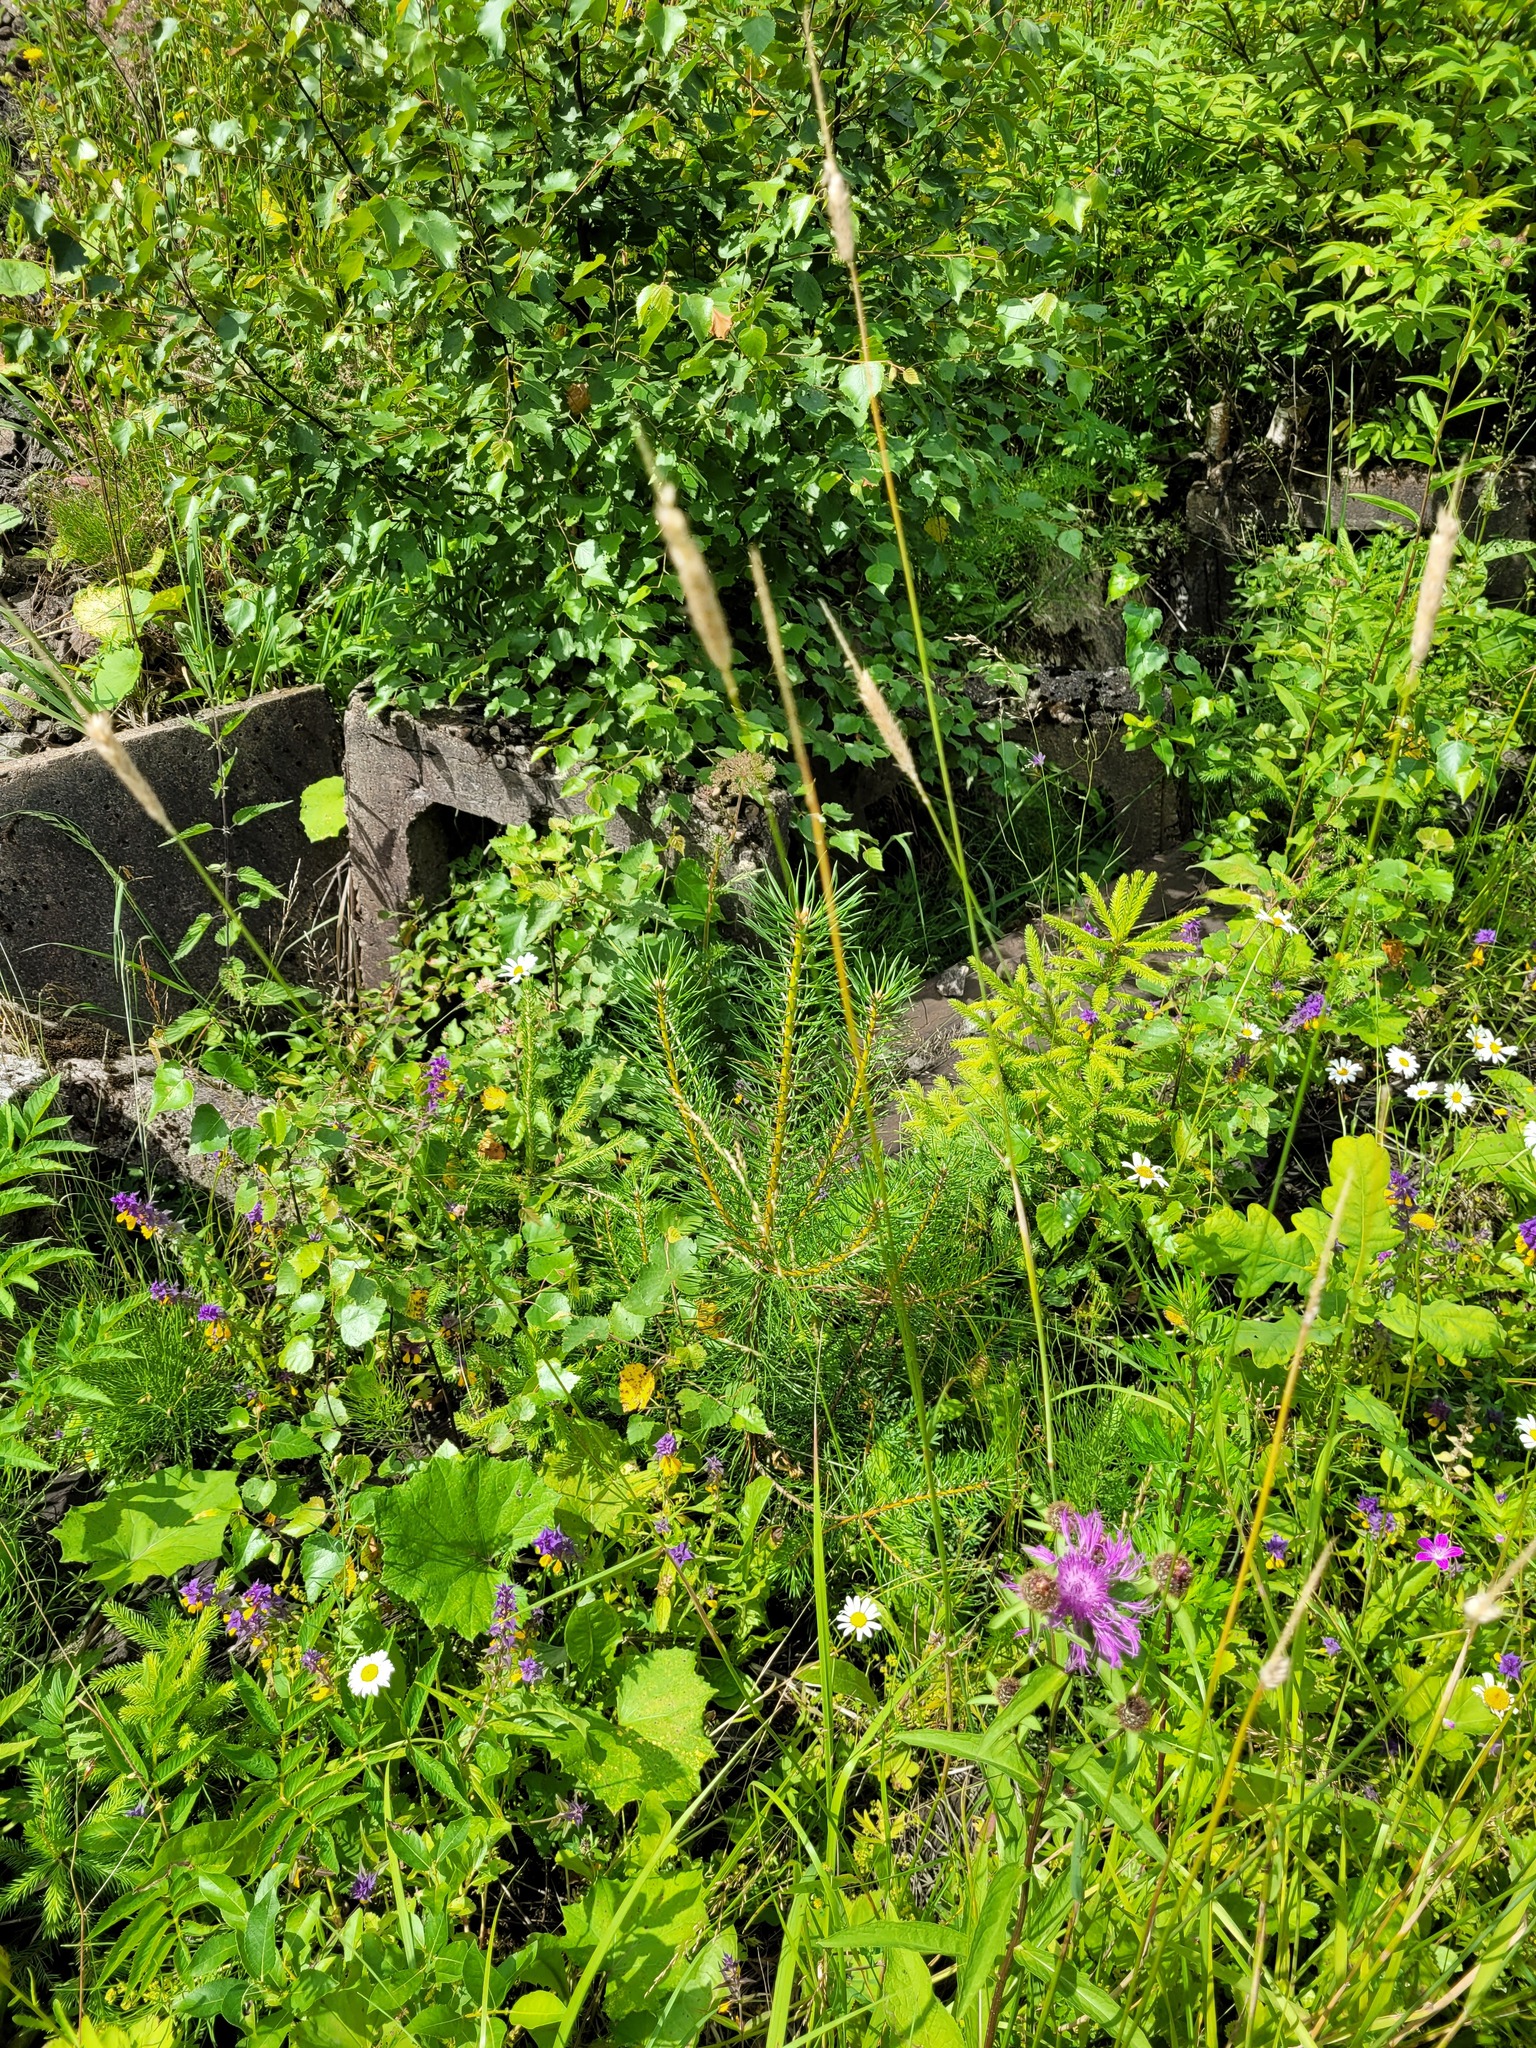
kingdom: Plantae
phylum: Tracheophyta
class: Pinopsida
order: Pinales
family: Pinaceae
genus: Pinus
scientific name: Pinus sylvestris
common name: Scots pine
